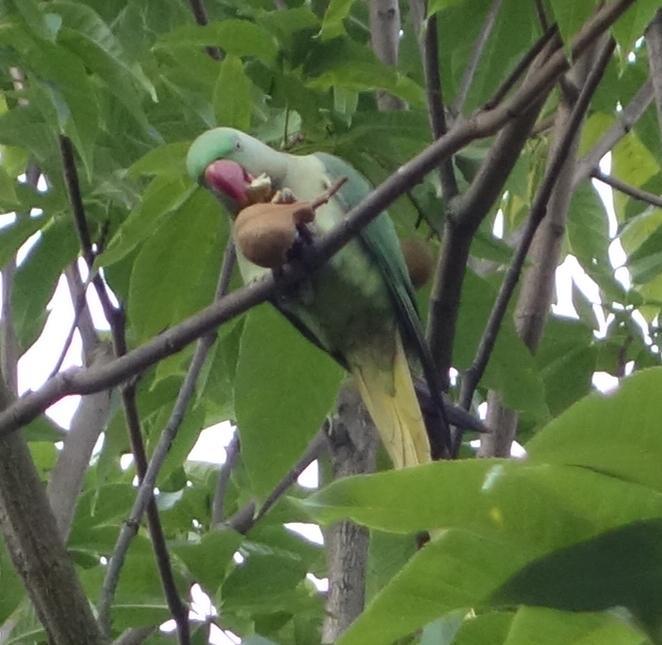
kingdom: Animalia
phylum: Chordata
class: Aves
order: Psittaciformes
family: Psittacidae
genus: Psittacula
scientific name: Psittacula eupatria
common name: Alexandrine parakeet
